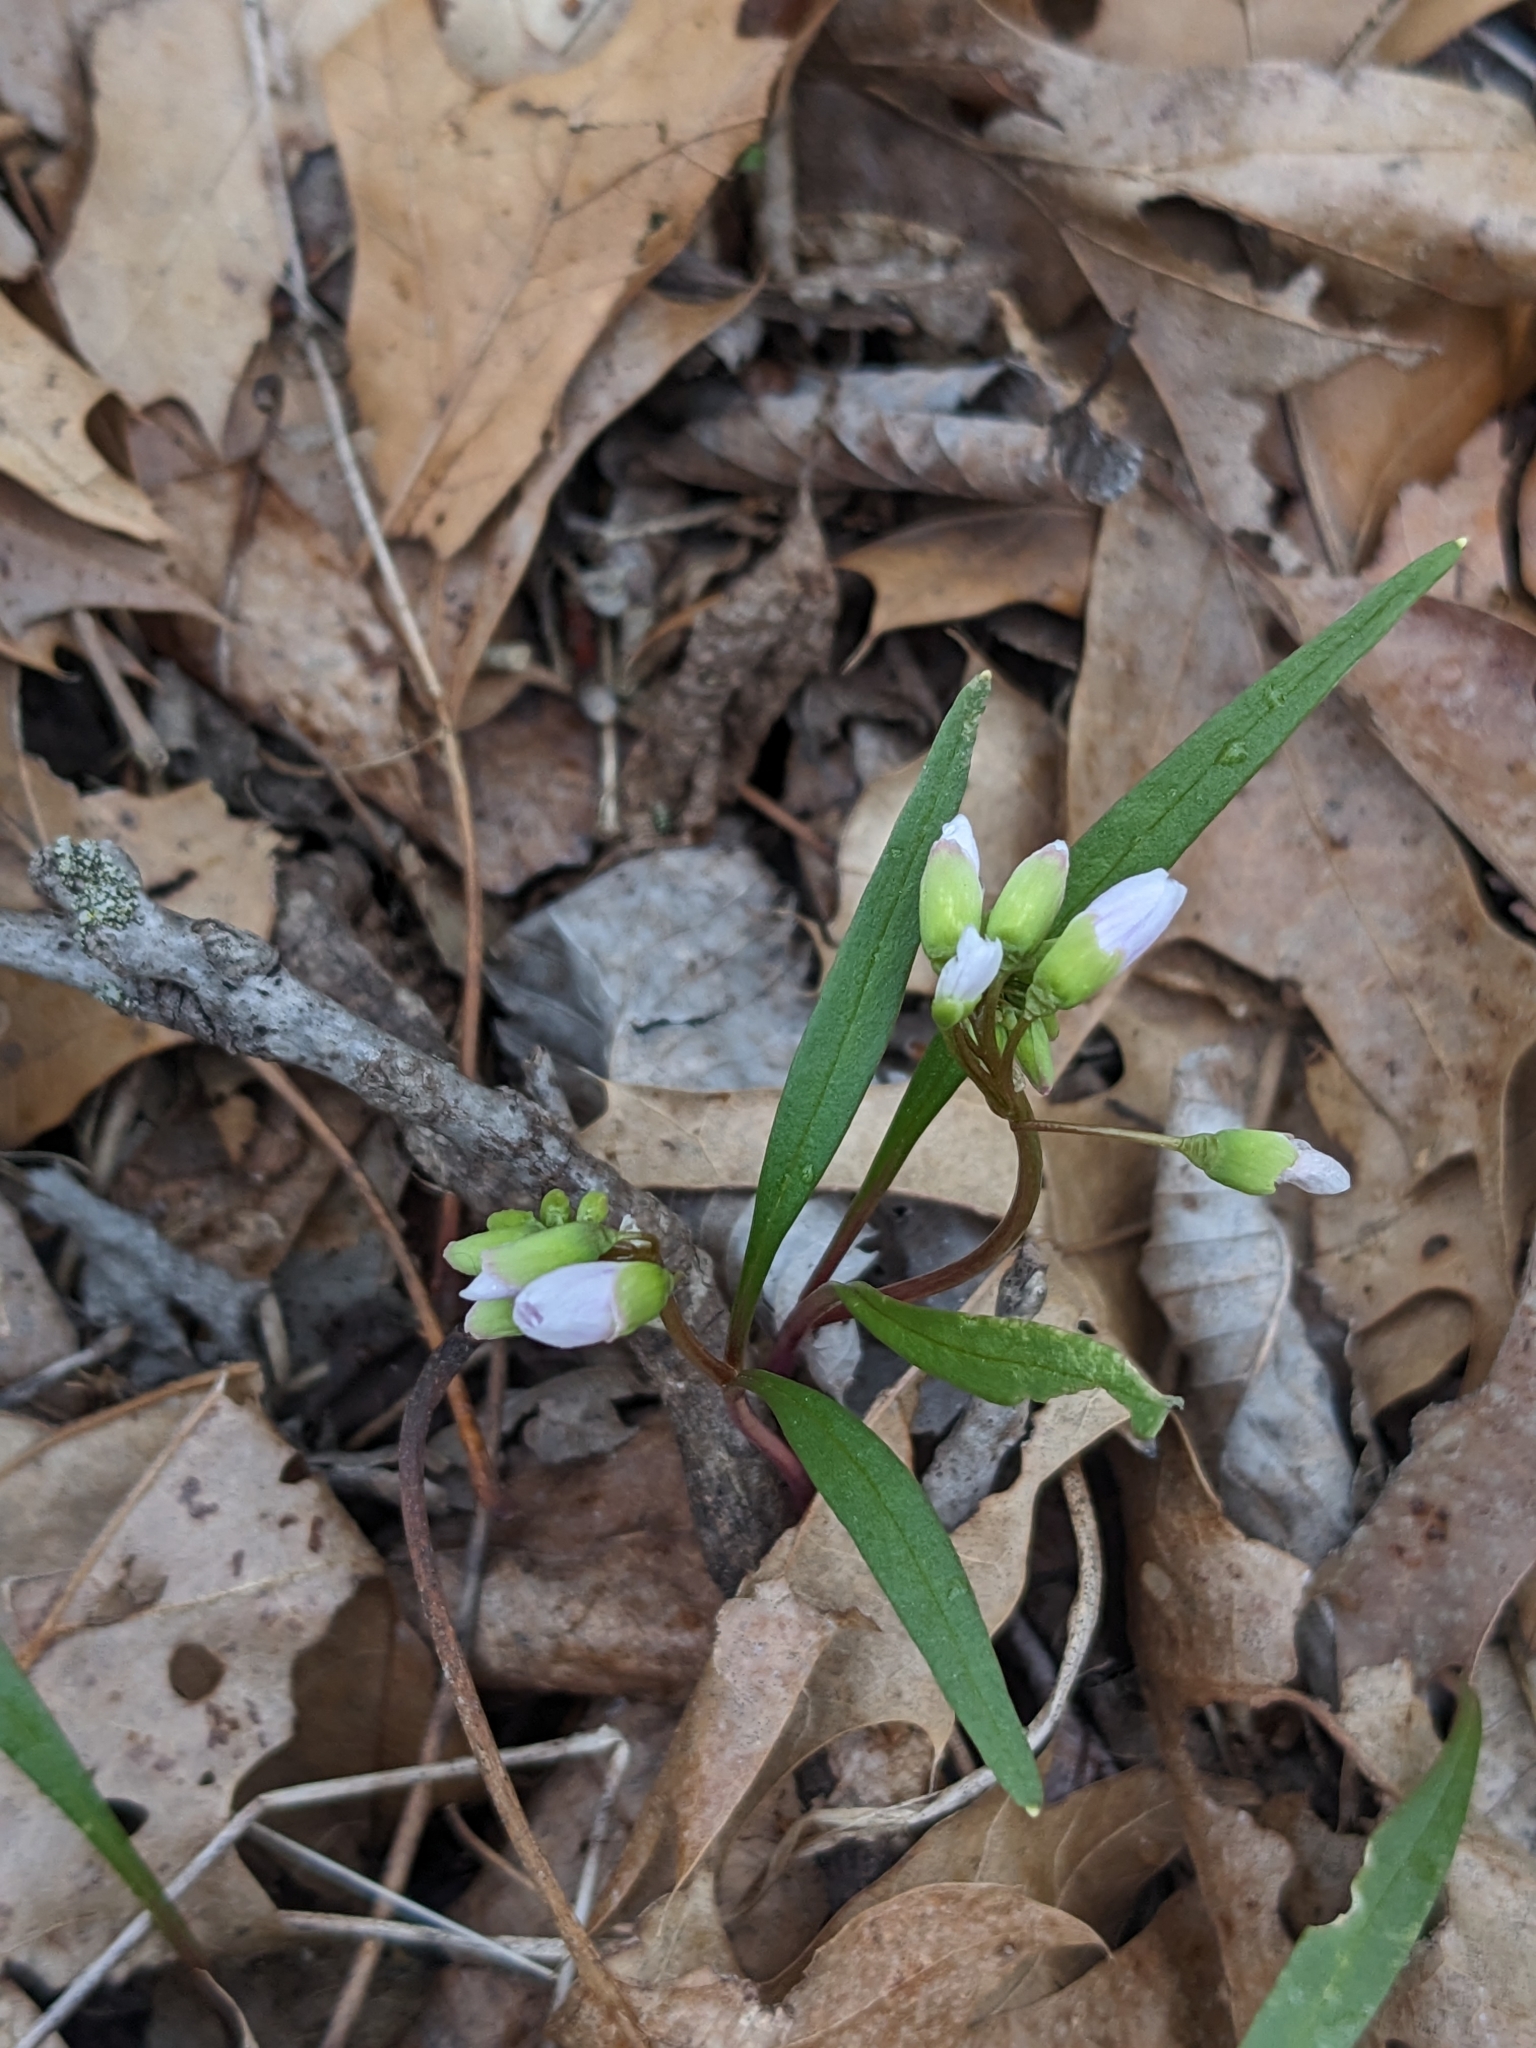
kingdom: Plantae
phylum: Tracheophyta
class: Magnoliopsida
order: Caryophyllales
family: Montiaceae
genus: Claytonia
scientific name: Claytonia virginica
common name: Virginia springbeauty
